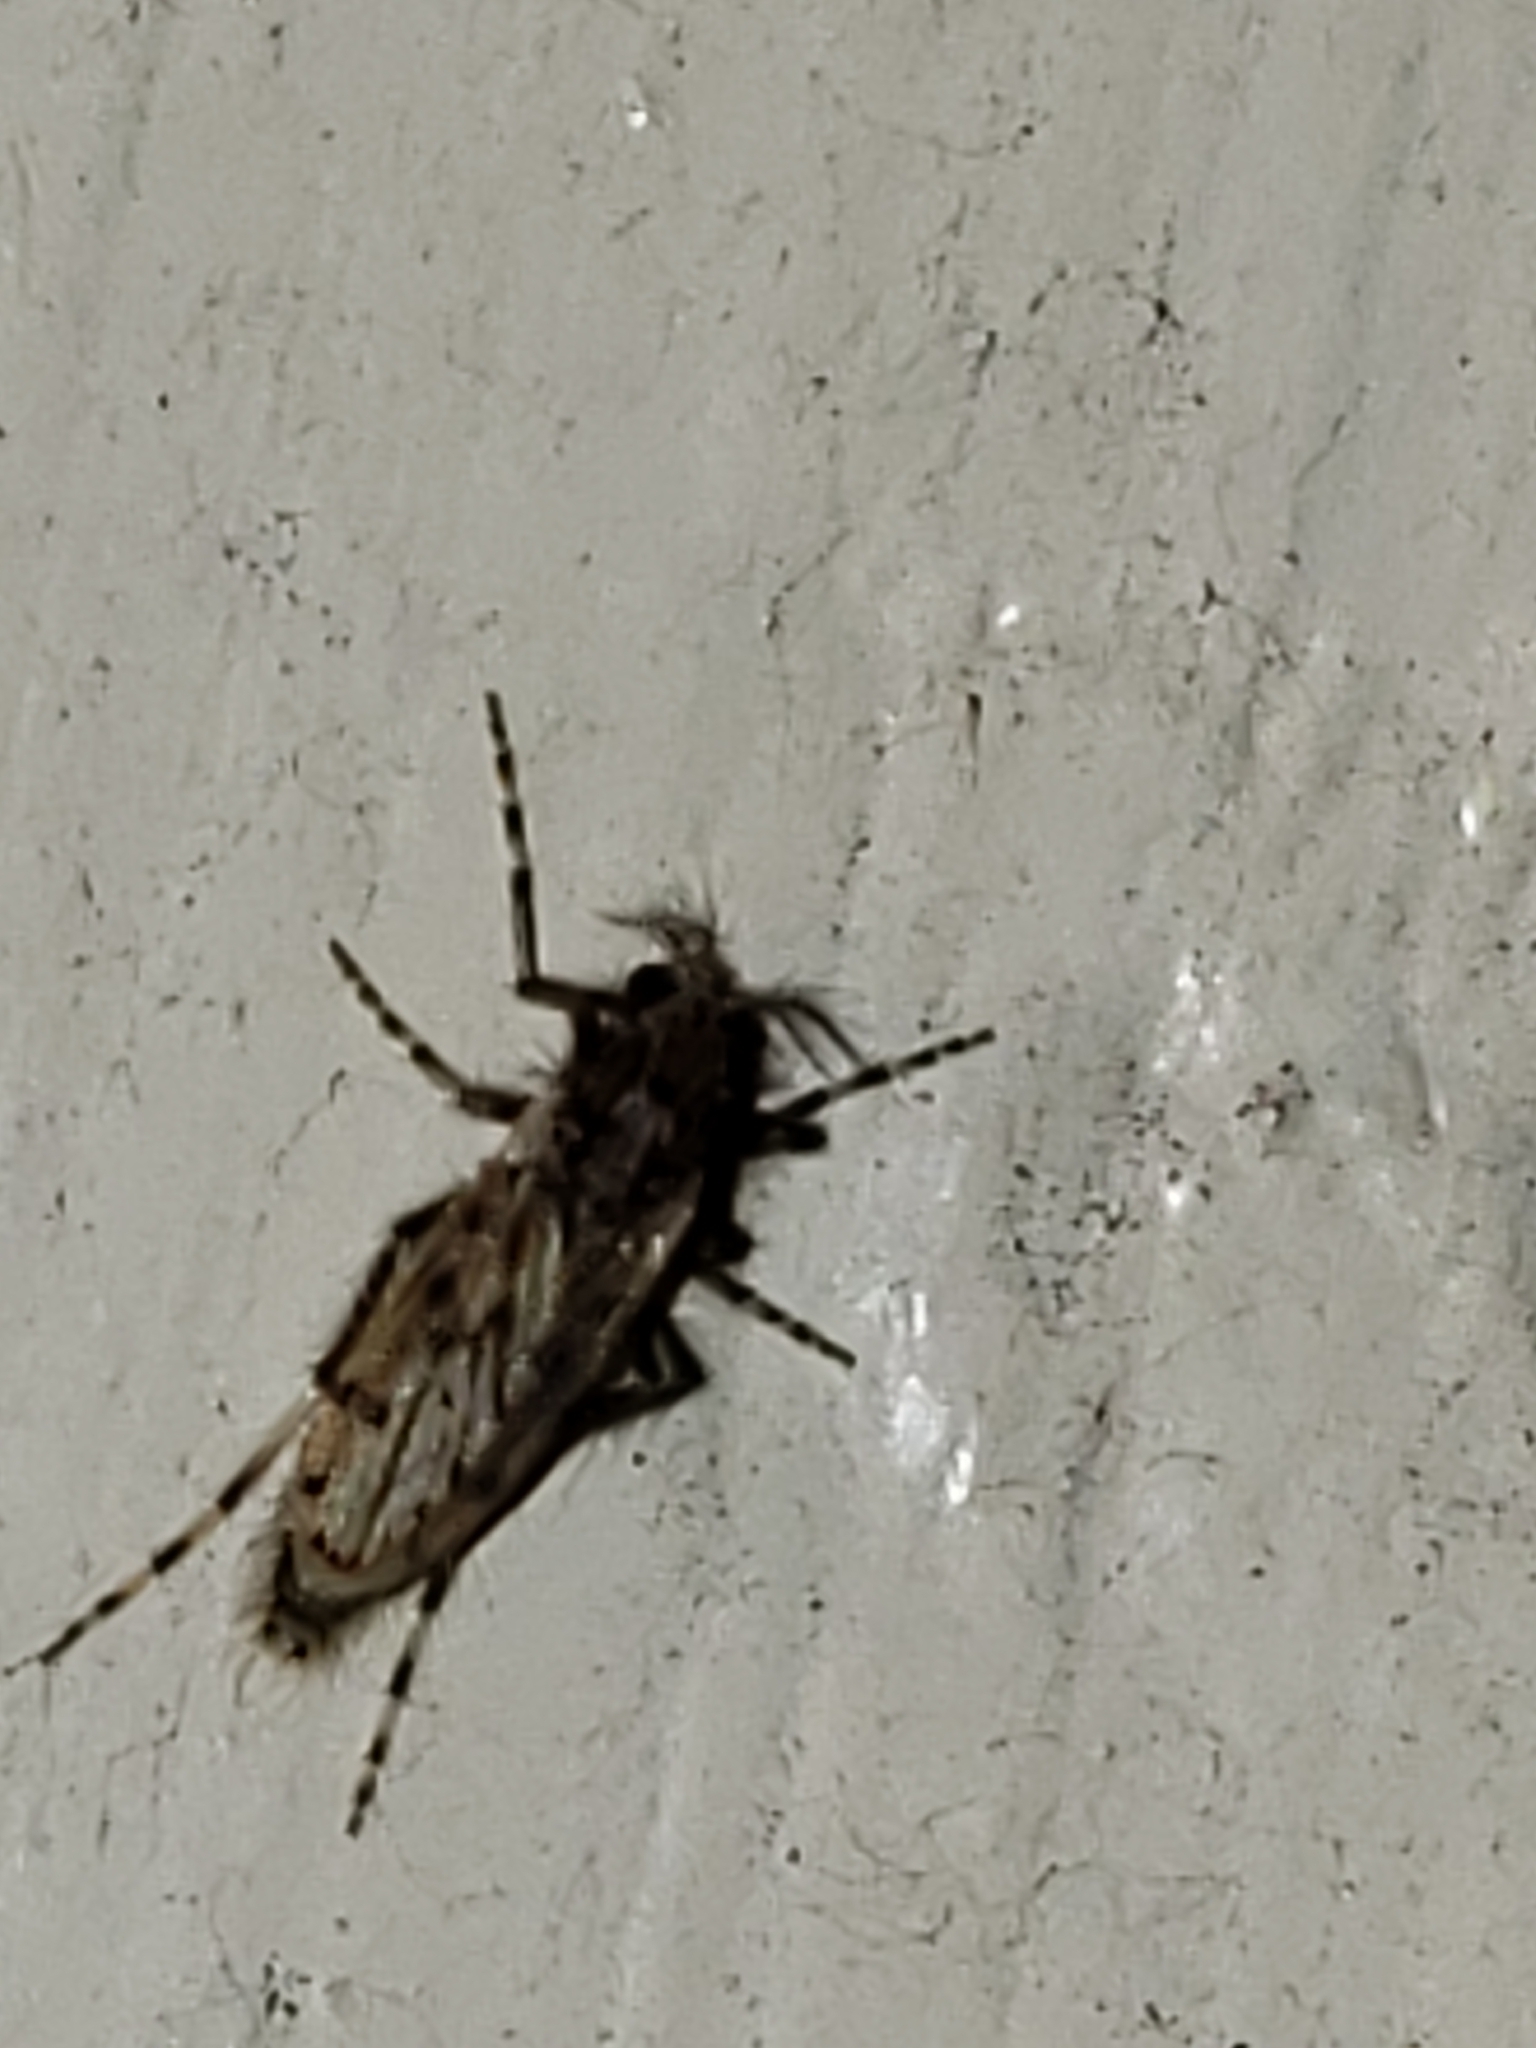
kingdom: Animalia
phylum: Arthropoda
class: Insecta
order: Diptera
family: Chaoboridae
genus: Chaoborus
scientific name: Chaoborus punctipennis
